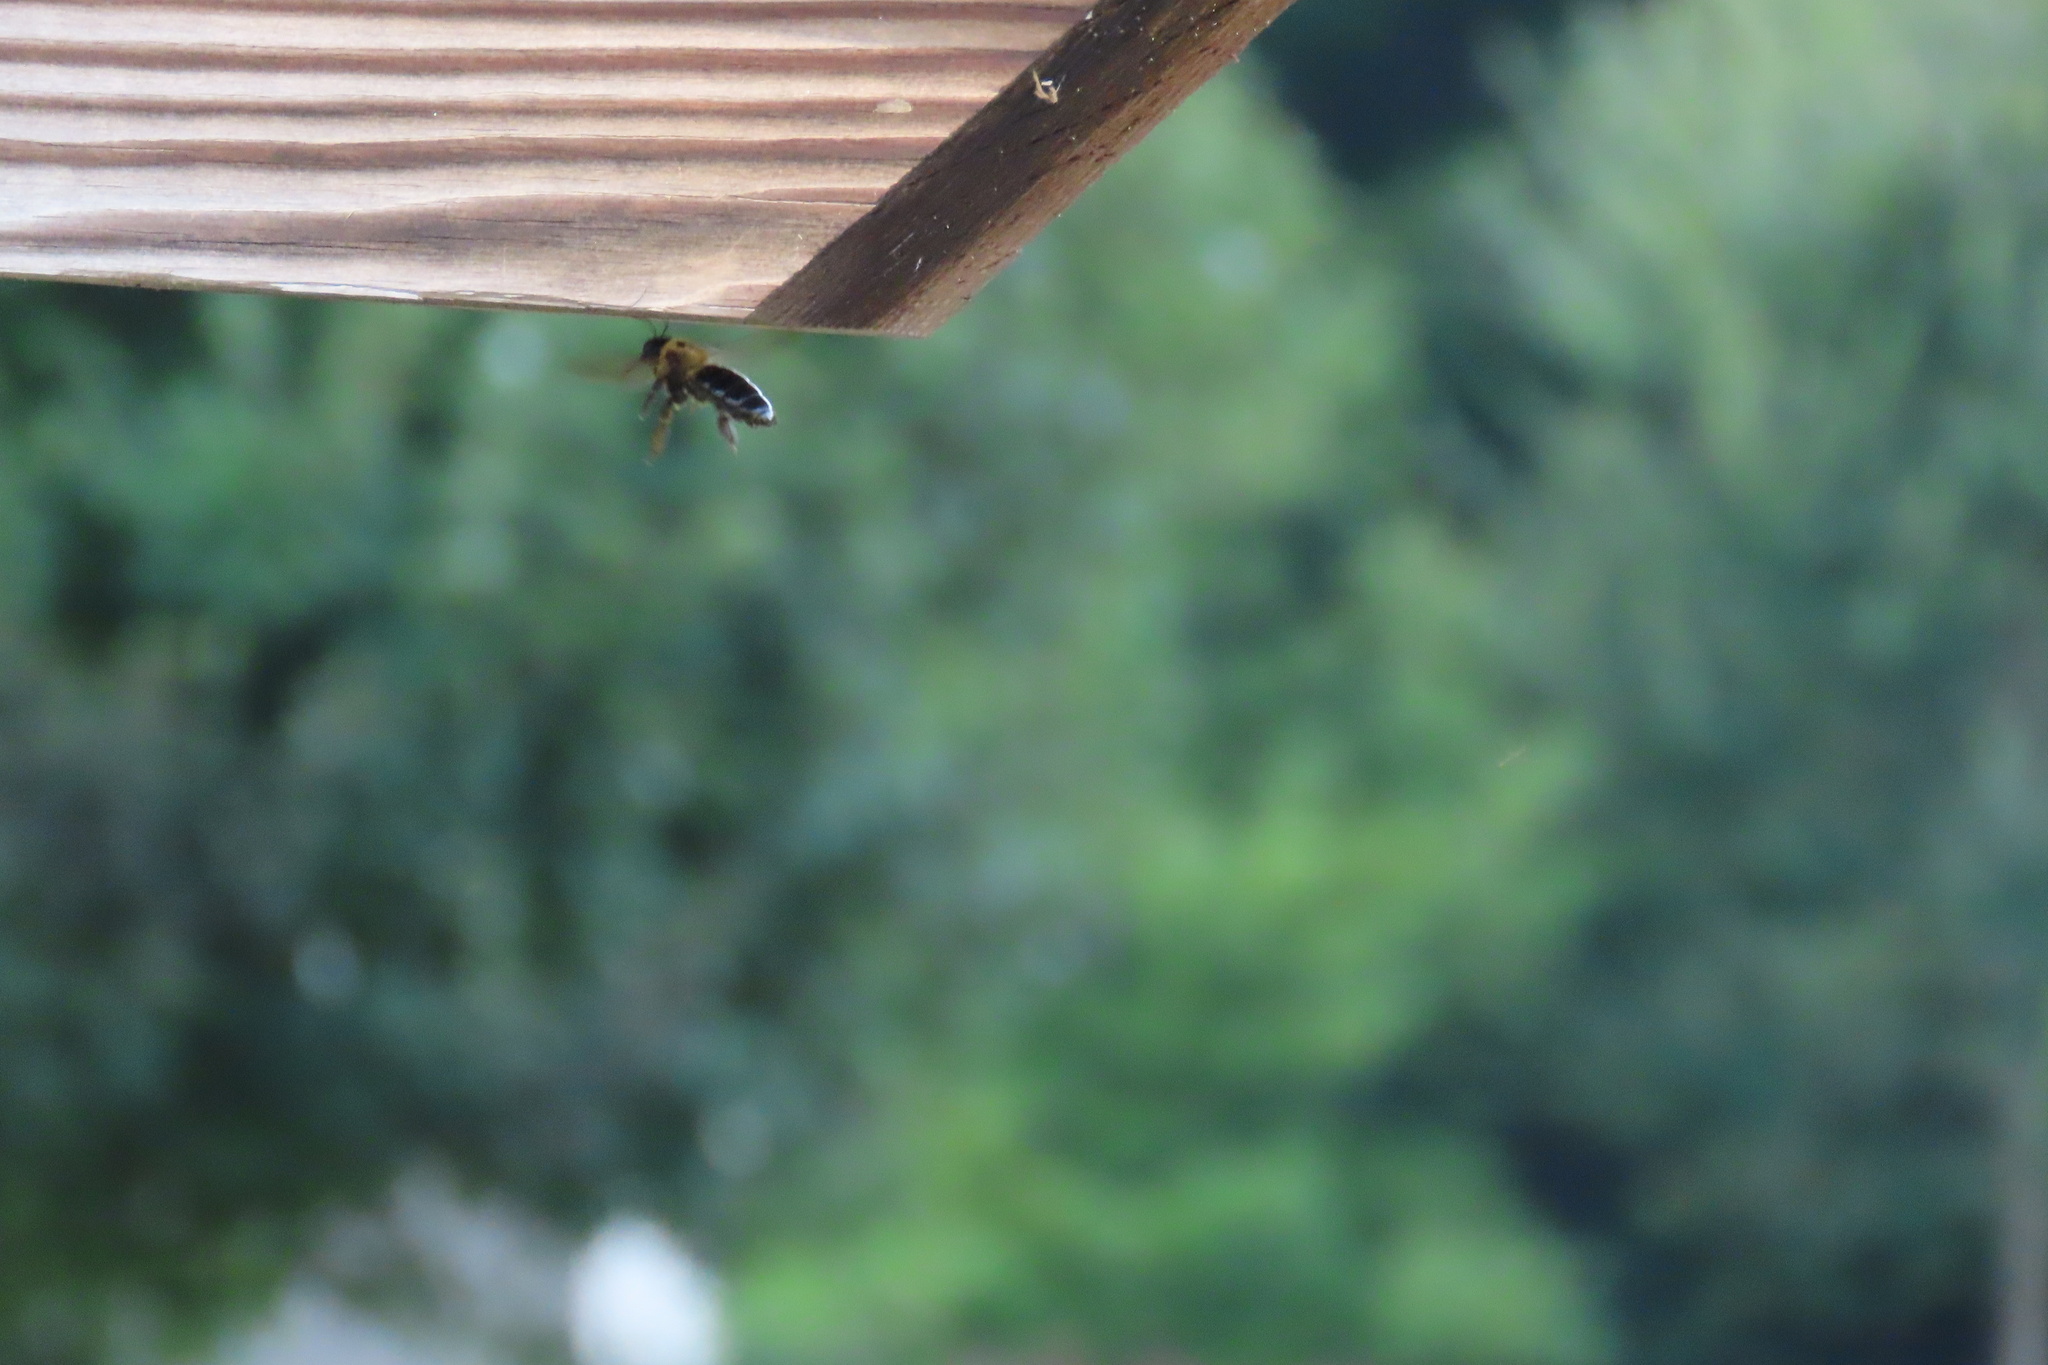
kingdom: Animalia
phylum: Arthropoda
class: Insecta
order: Hymenoptera
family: Apidae
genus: Xylocopa
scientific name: Xylocopa virginica
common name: Carpenter bee
